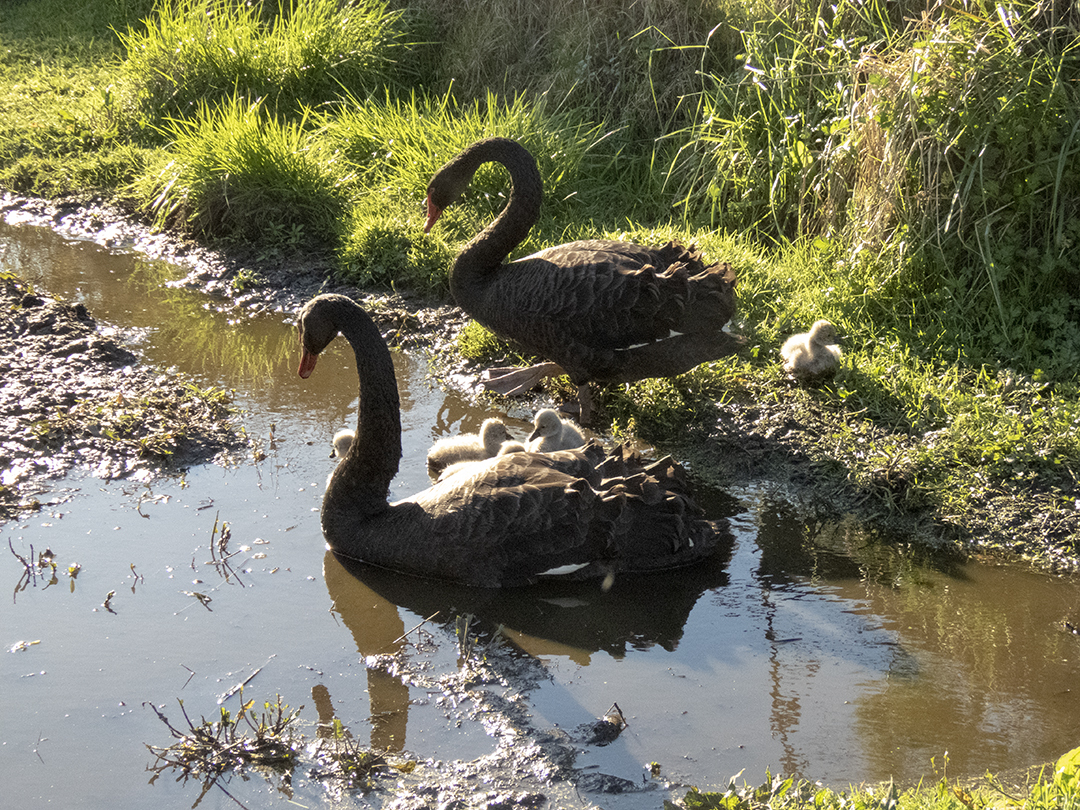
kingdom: Animalia
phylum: Chordata
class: Aves
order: Anseriformes
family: Anatidae
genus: Cygnus
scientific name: Cygnus atratus
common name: Black swan
